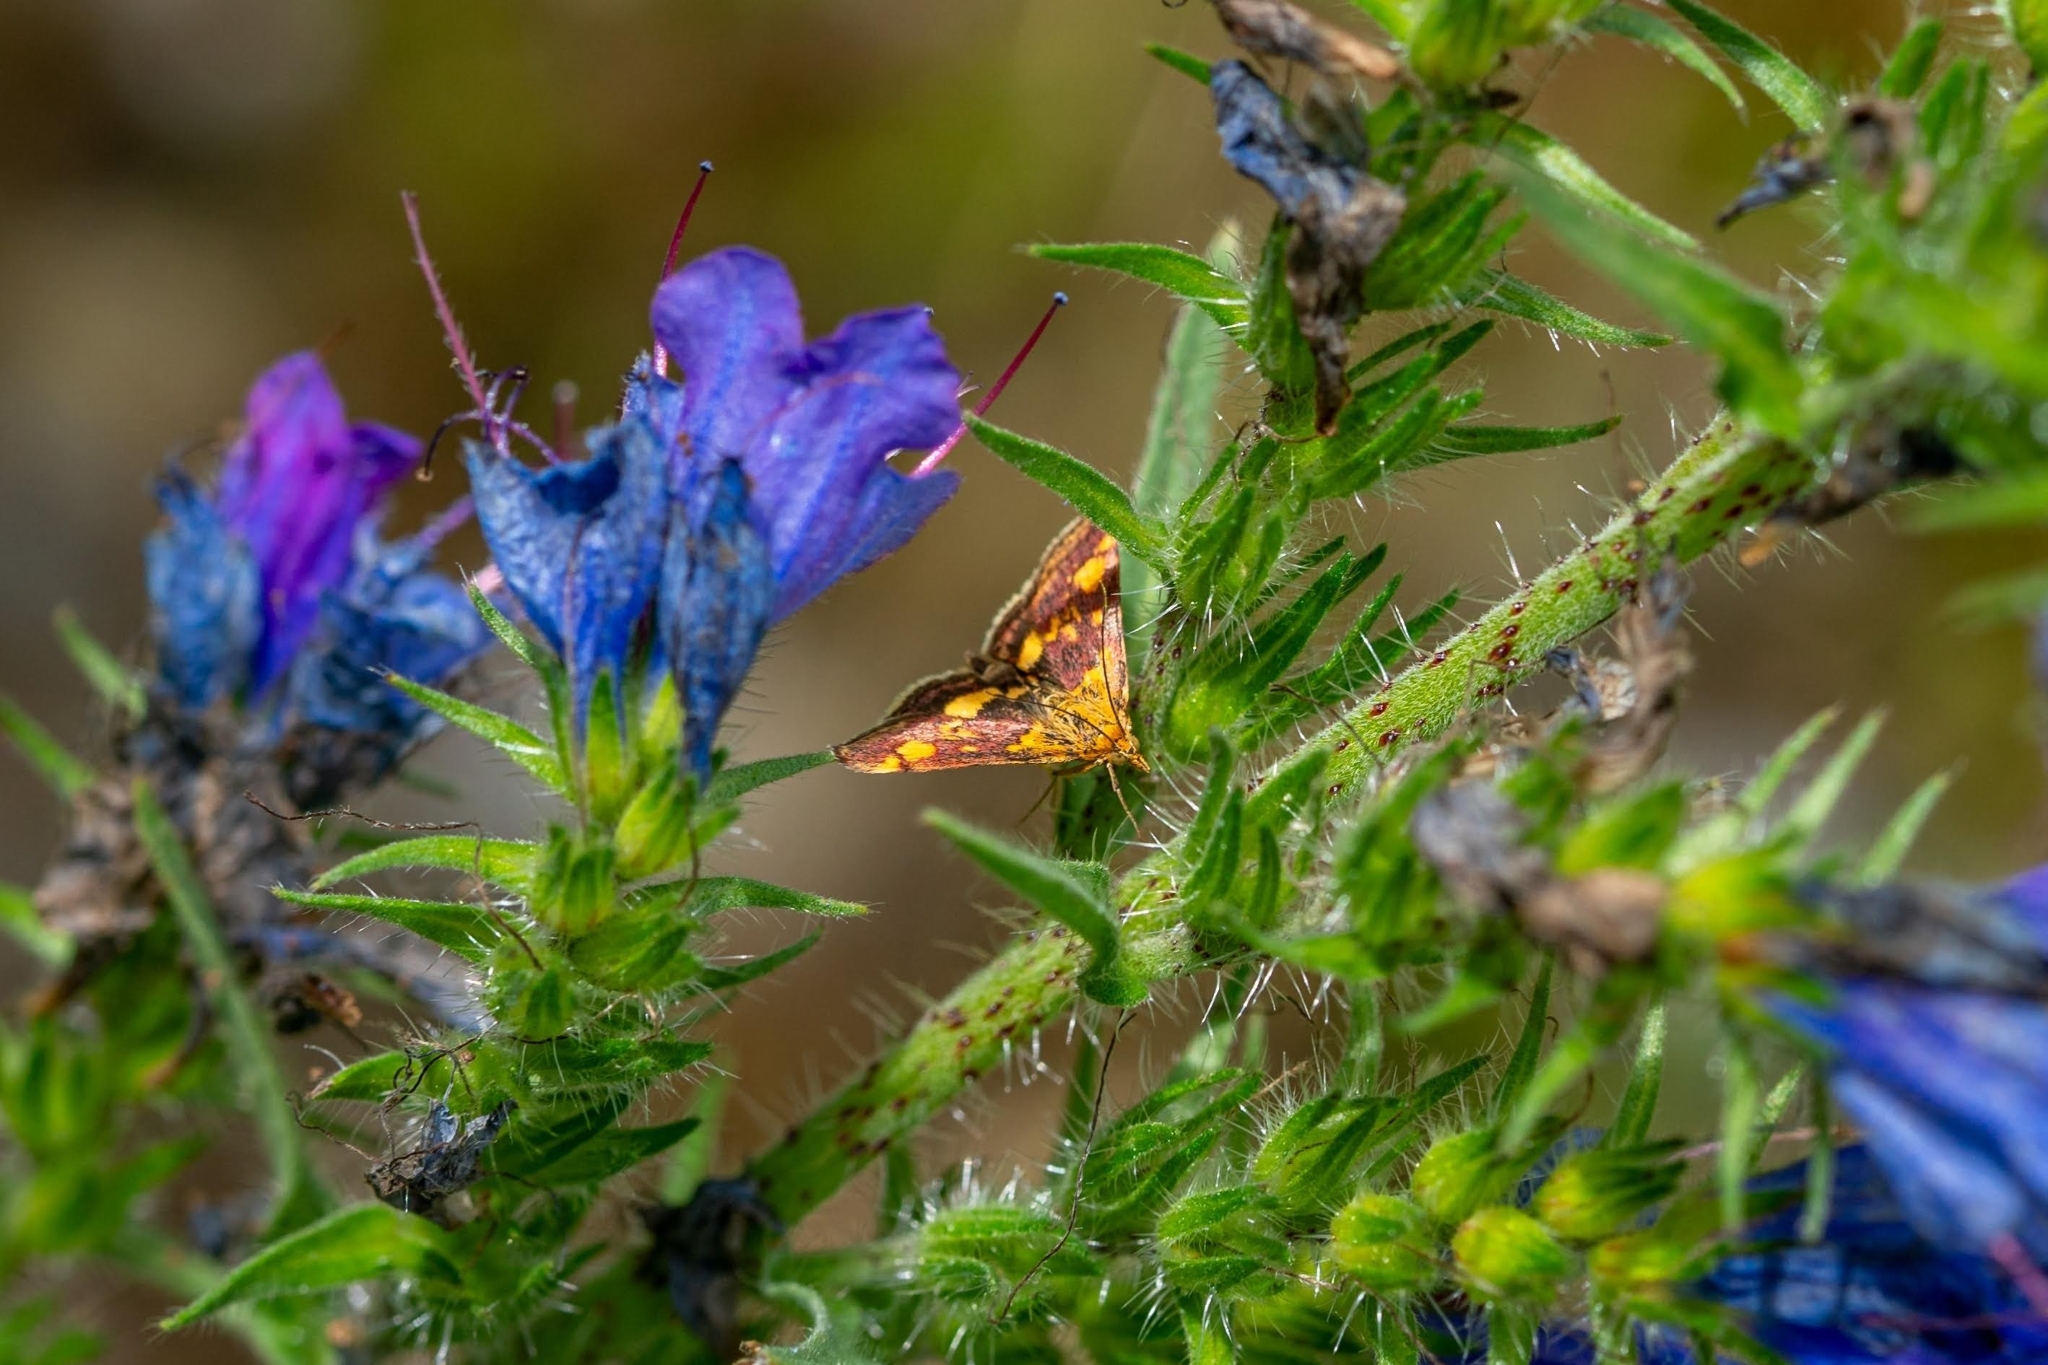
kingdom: Animalia
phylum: Arthropoda
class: Insecta
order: Lepidoptera
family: Crambidae
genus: Pyrausta
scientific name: Pyrausta aurata
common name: Small purple & gold
